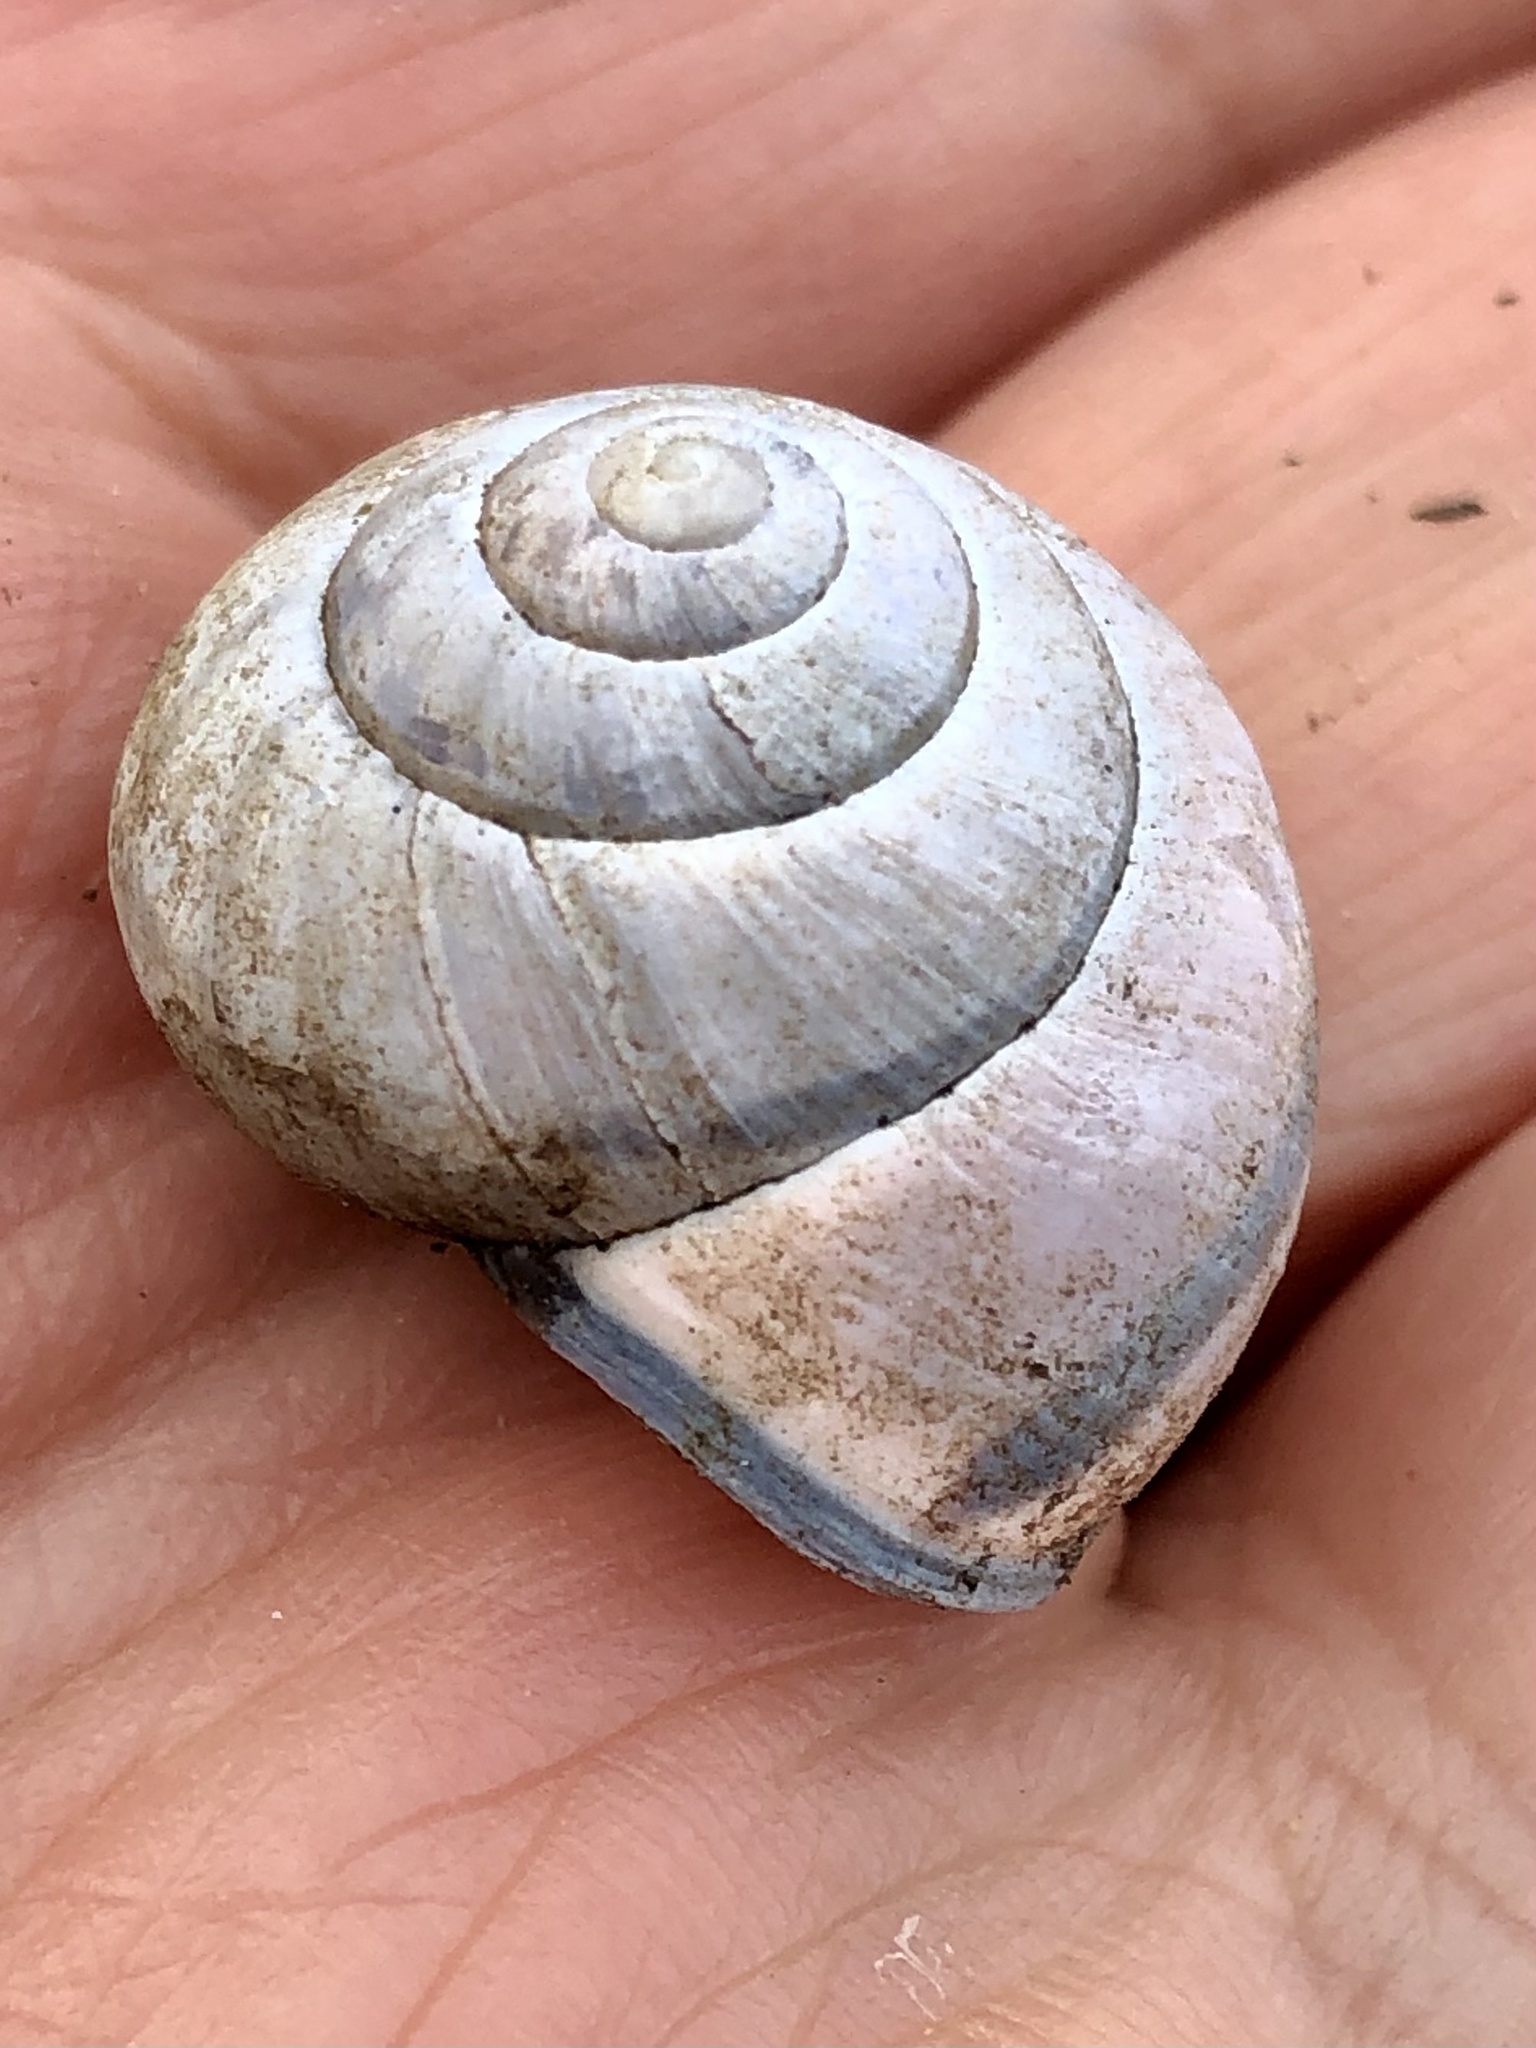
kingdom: Animalia
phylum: Mollusca
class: Gastropoda
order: Stylommatophora
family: Helicidae
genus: Cepaea
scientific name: Cepaea nemoralis
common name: Grovesnail
